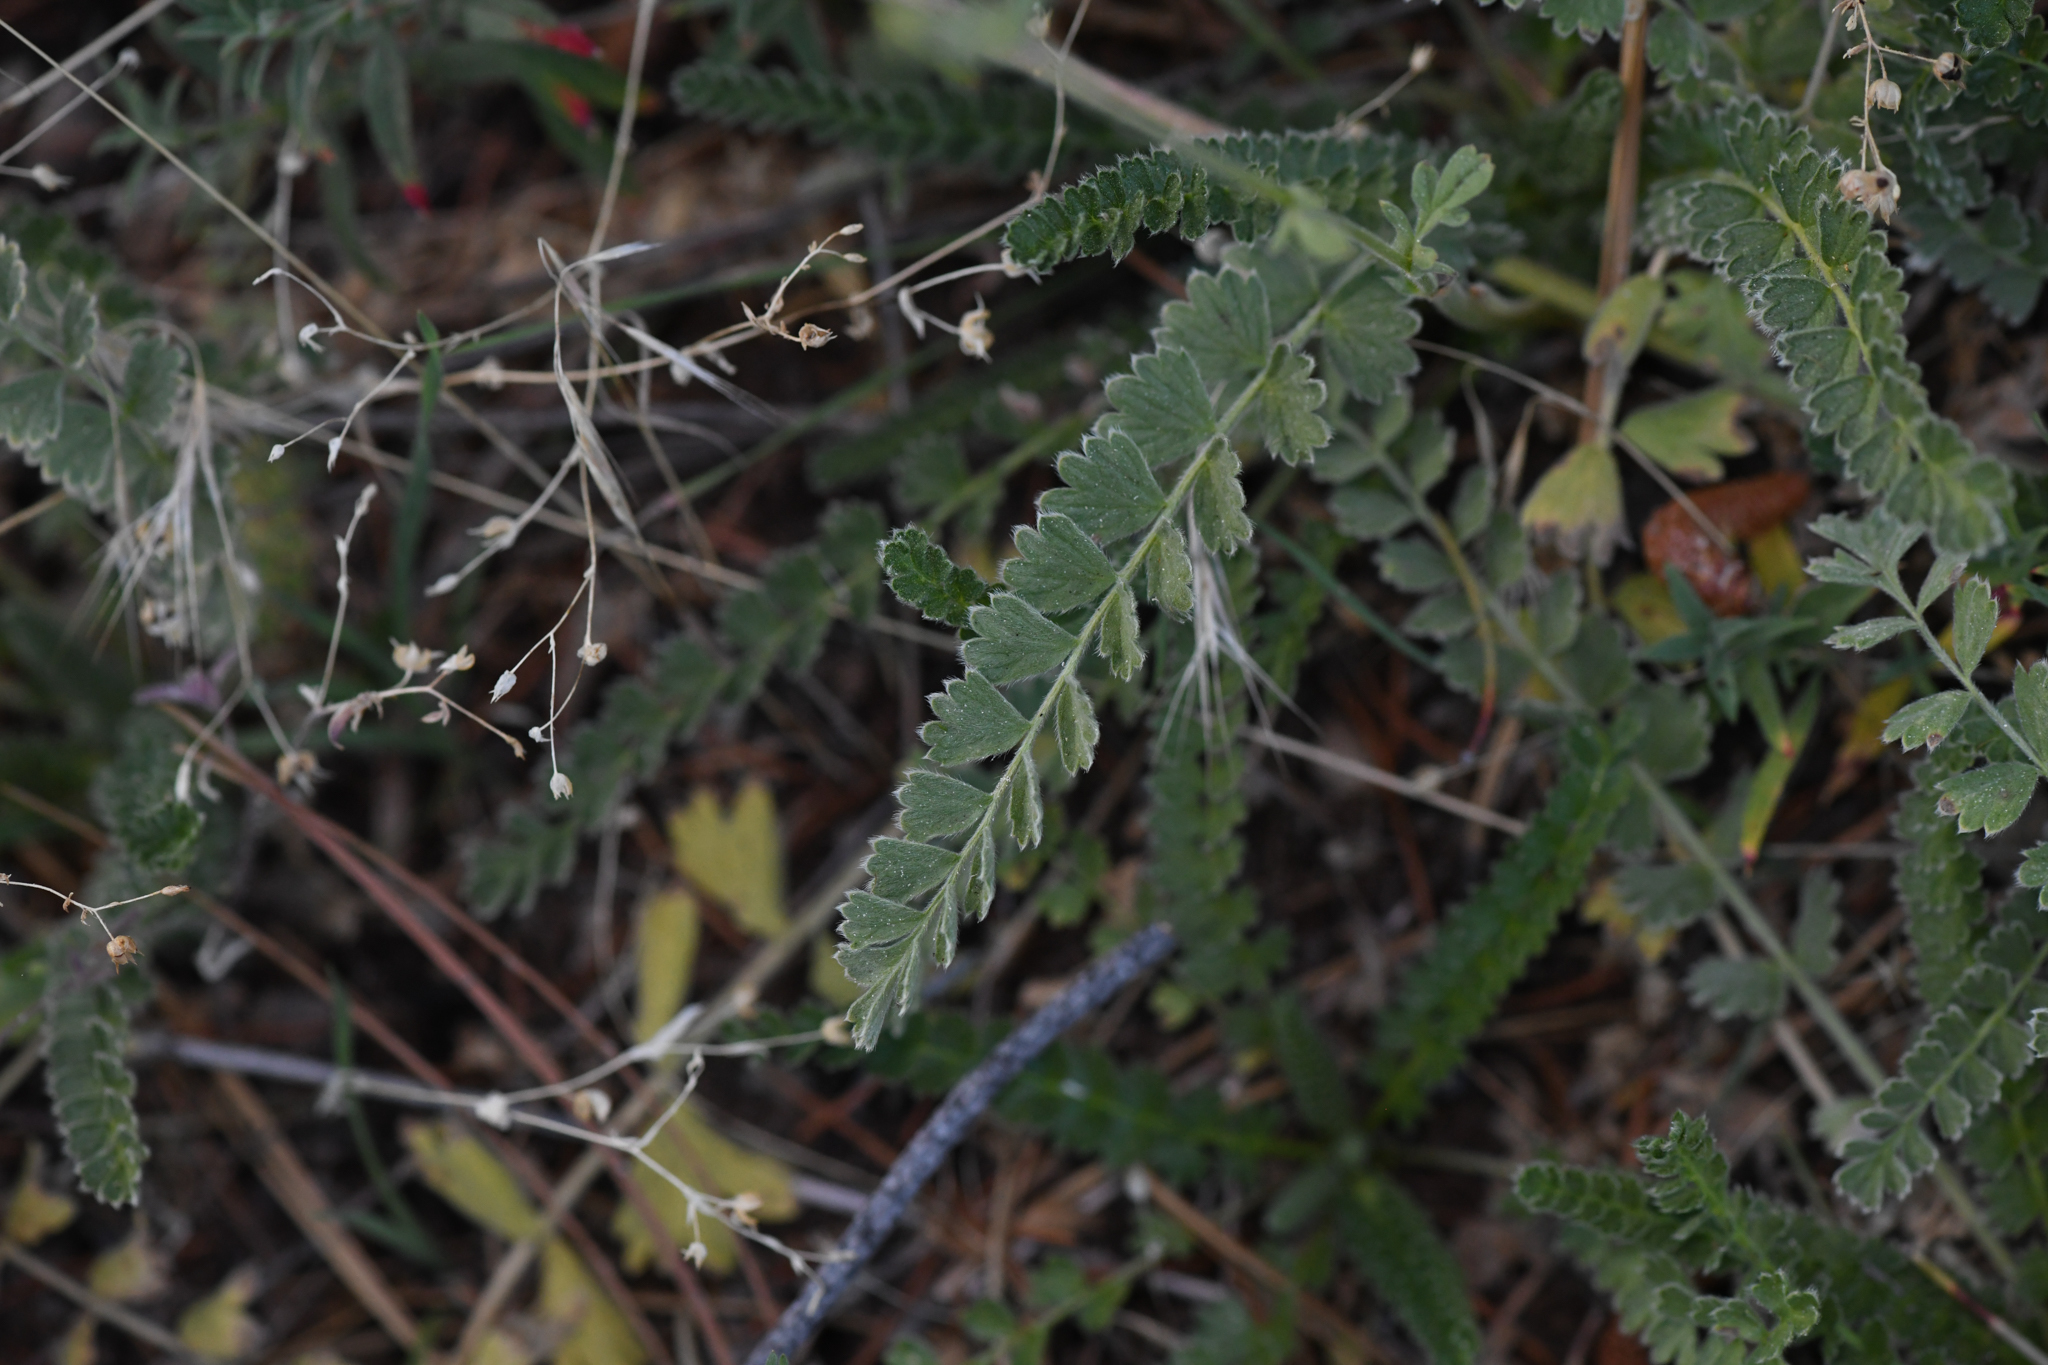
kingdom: Plantae
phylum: Tracheophyta
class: Magnoliopsida
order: Rosales
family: Rosaceae
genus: Potentilla
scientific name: Potentilla rydbergii
